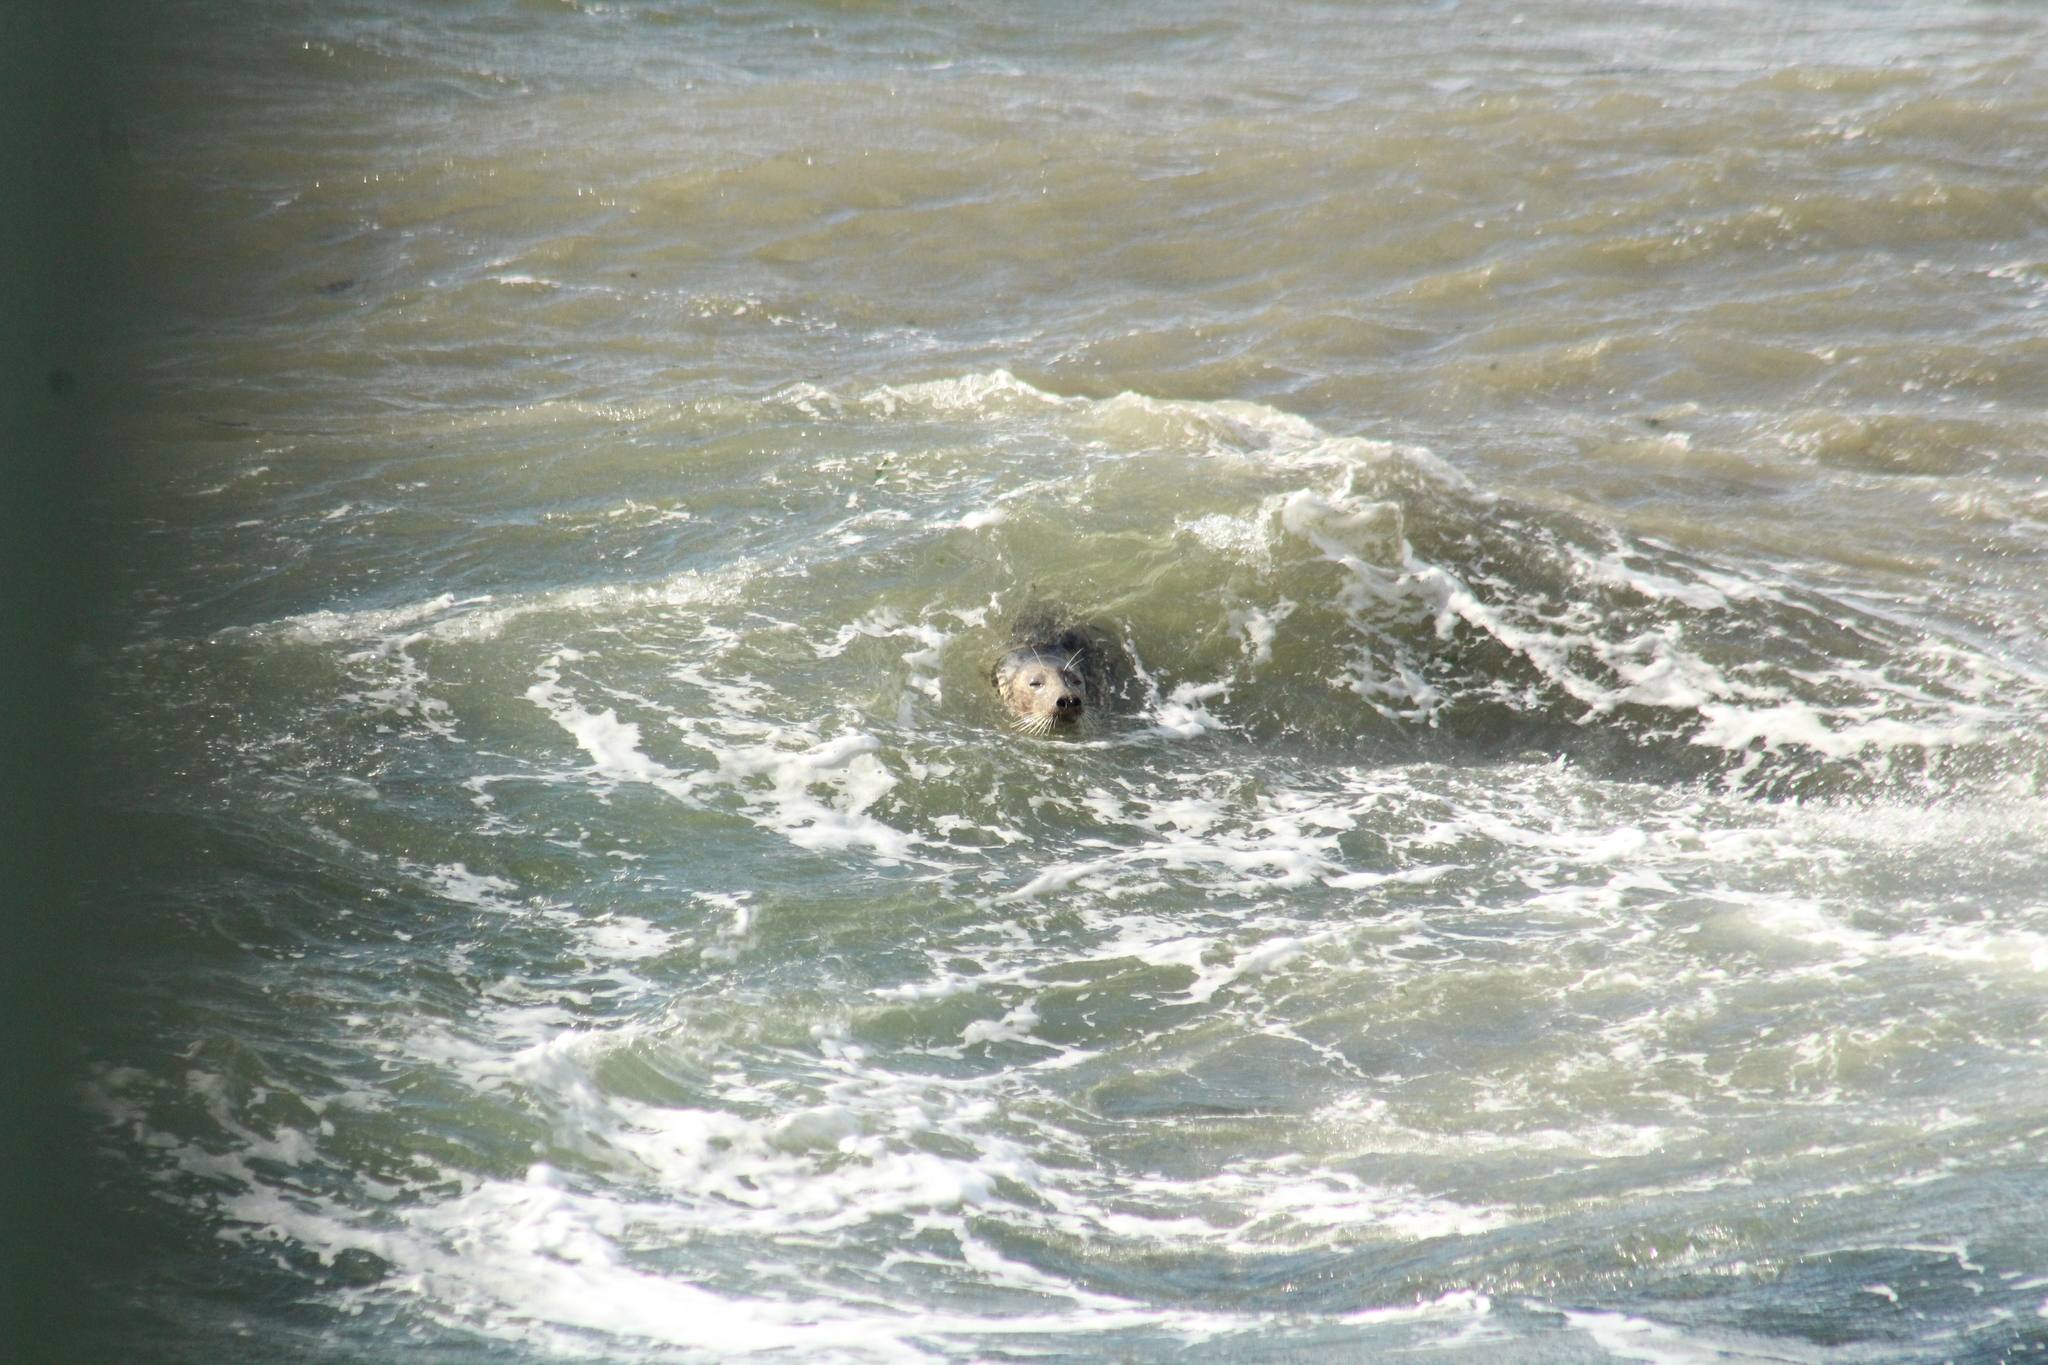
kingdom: Animalia
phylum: Chordata
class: Mammalia
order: Carnivora
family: Phocidae
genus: Halichoerus
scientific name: Halichoerus grypus
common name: Grey seal
